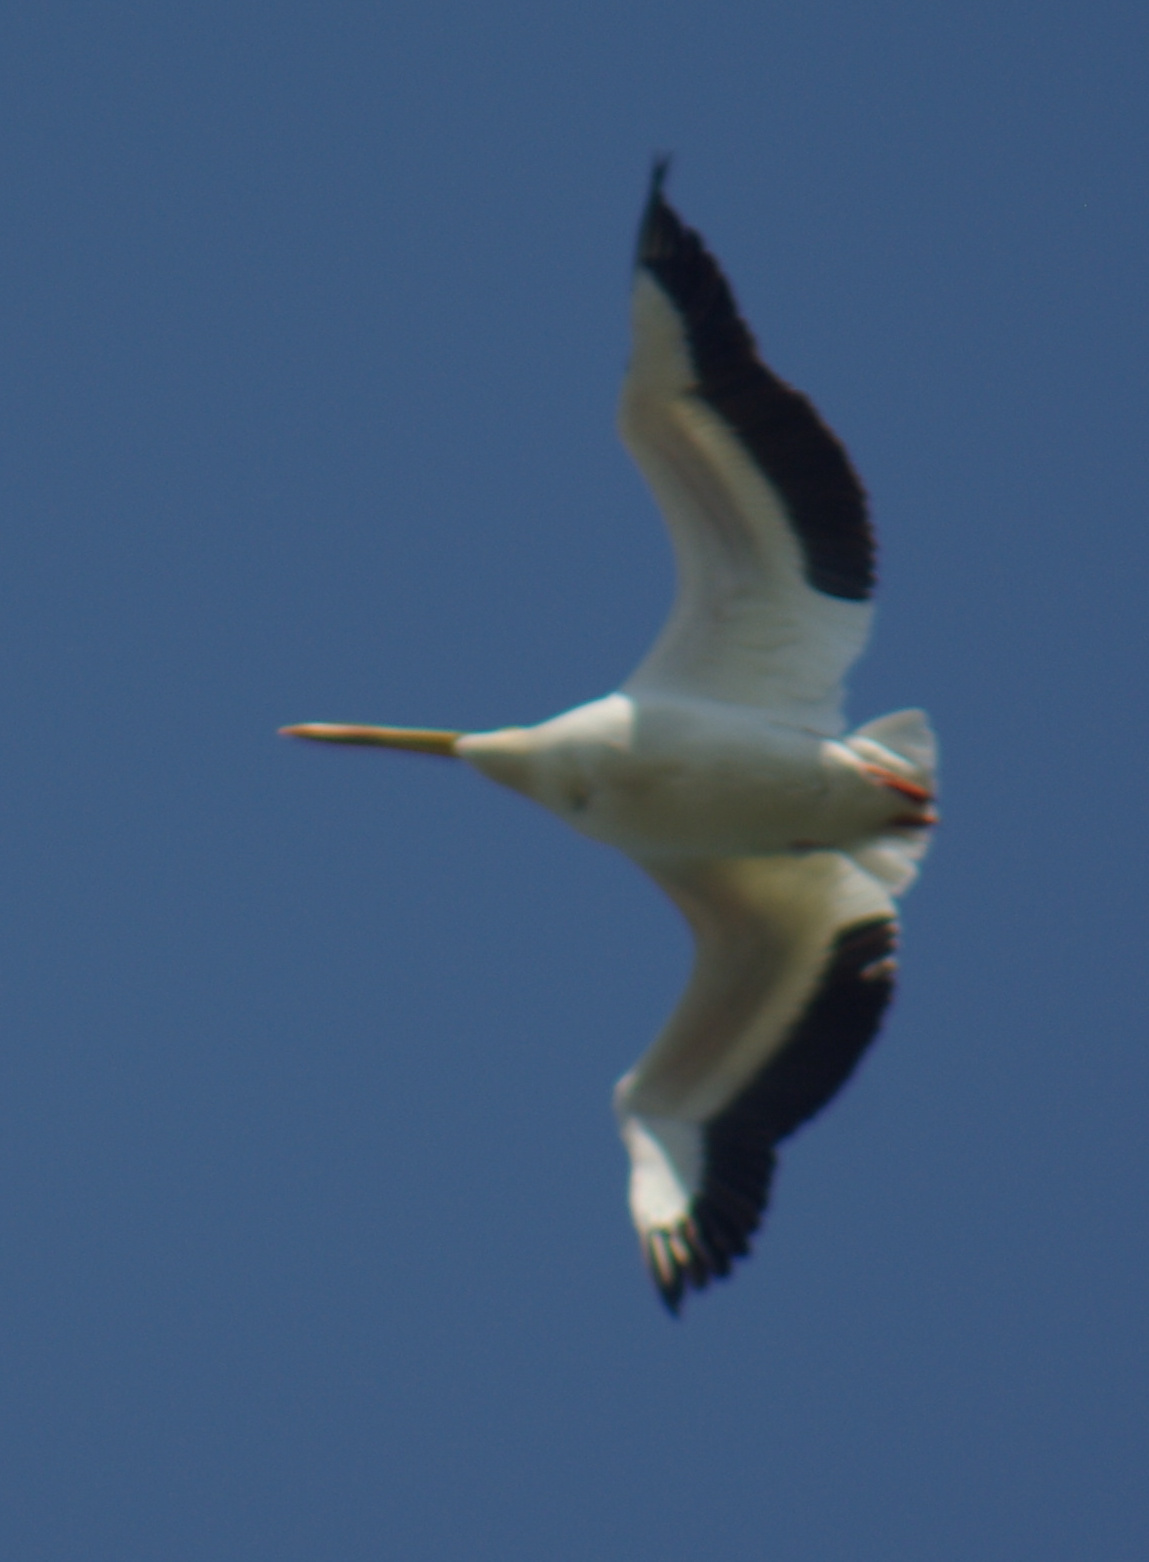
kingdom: Animalia
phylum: Chordata
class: Aves
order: Pelecaniformes
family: Pelecanidae
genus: Pelecanus
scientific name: Pelecanus erythrorhynchos
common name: American white pelican
